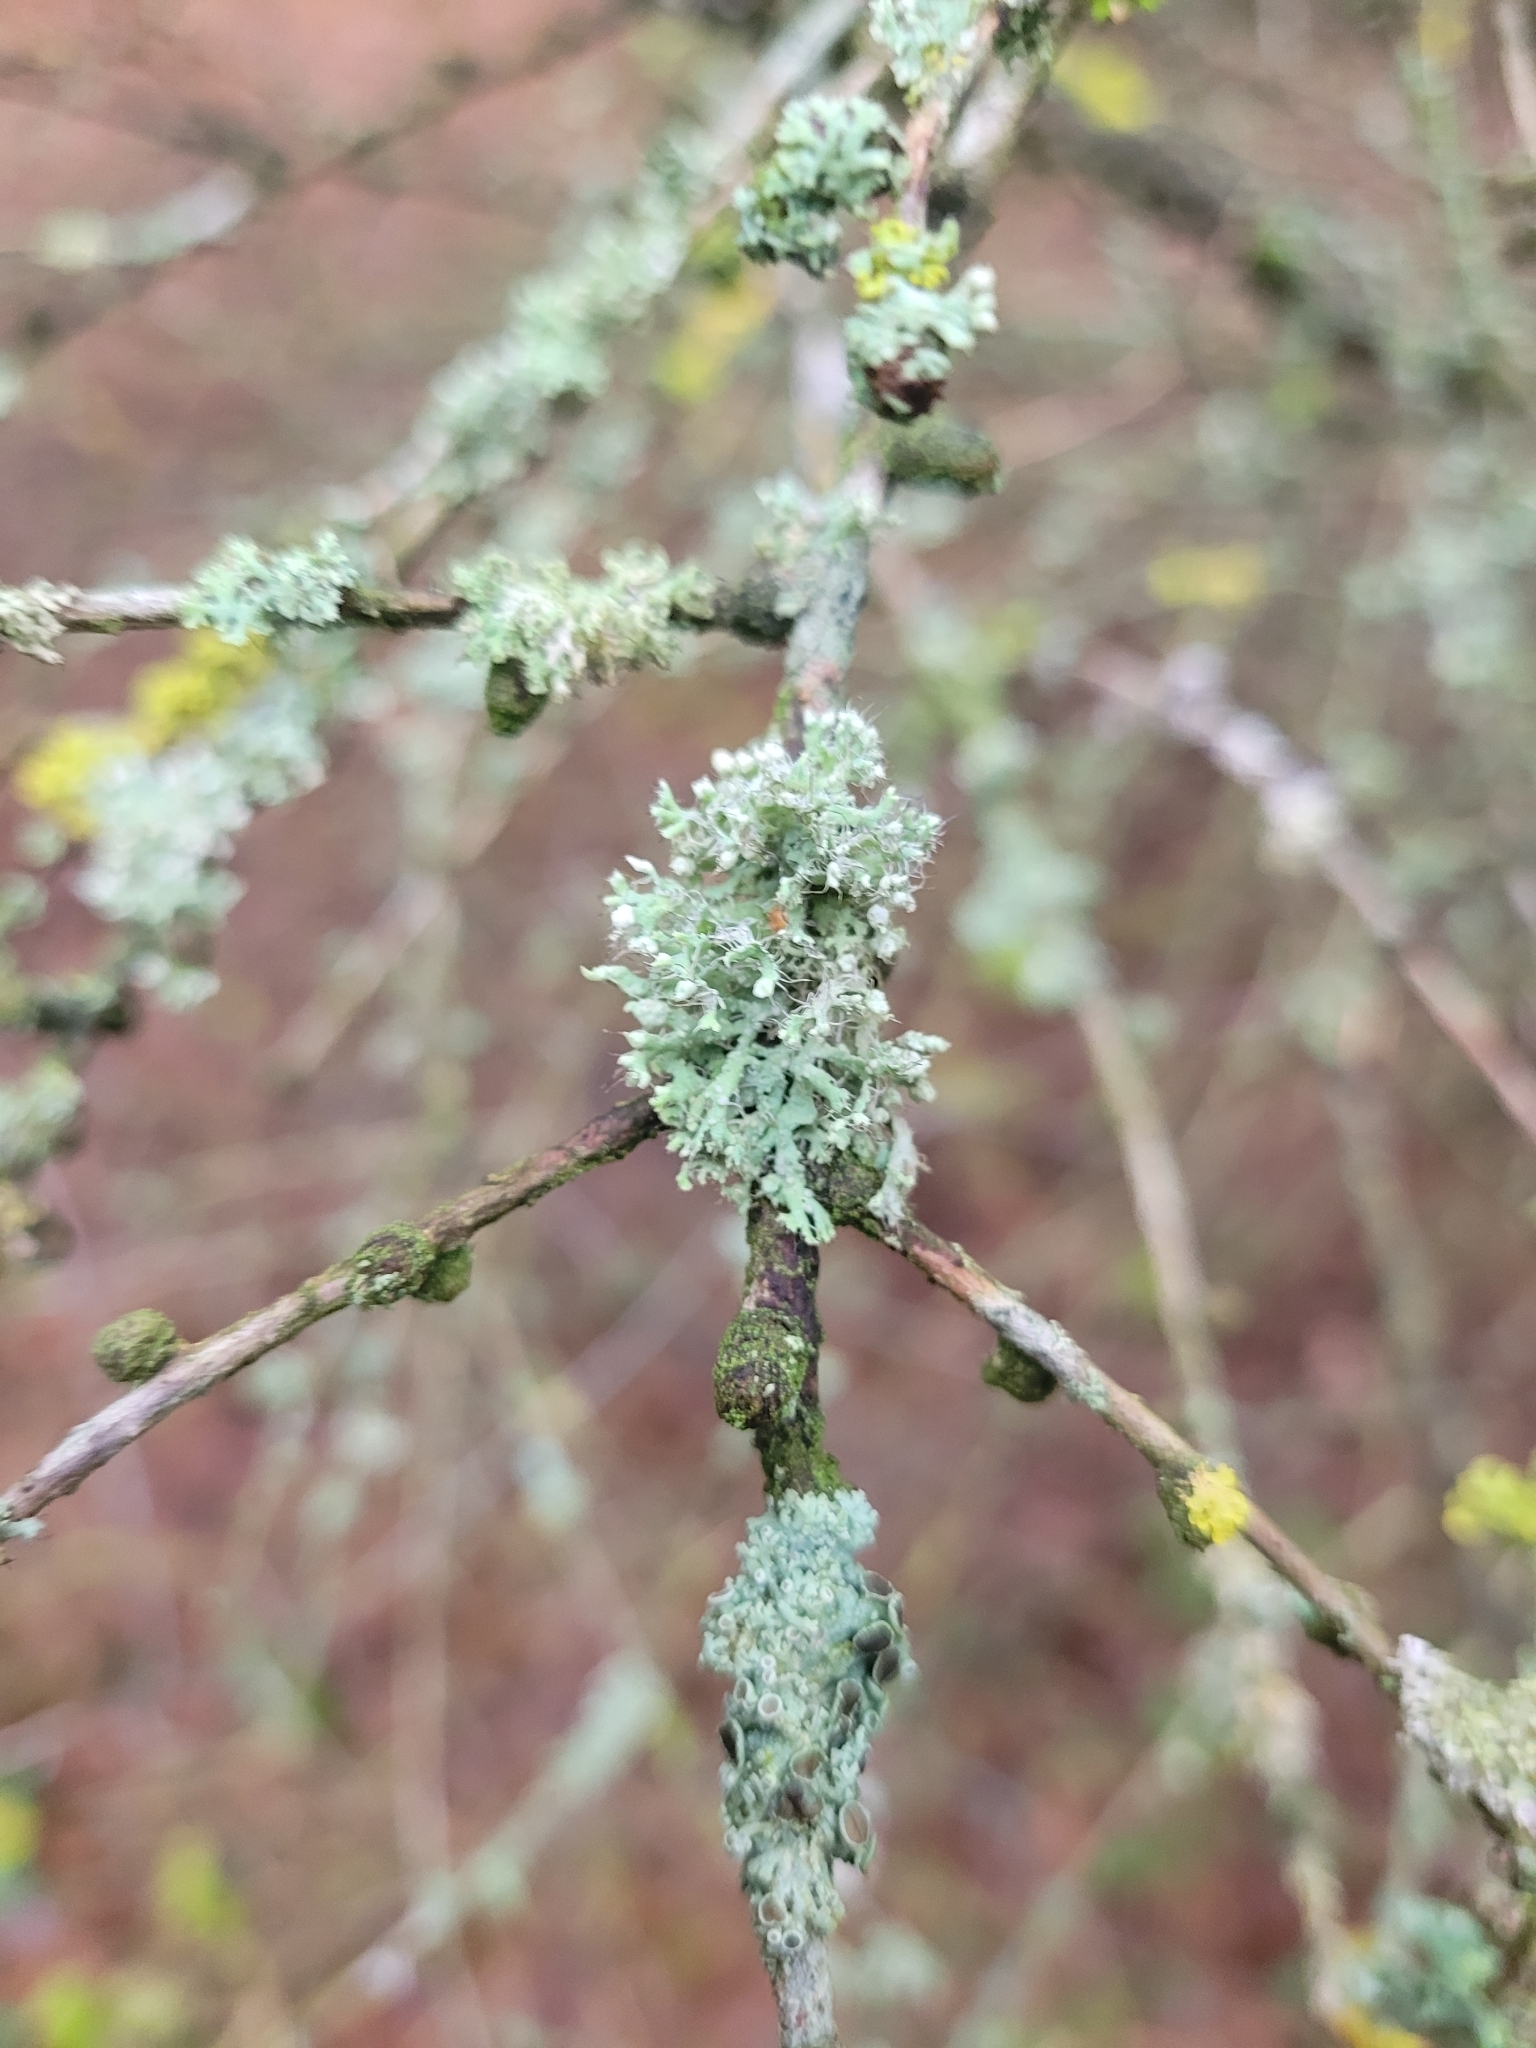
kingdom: Fungi
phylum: Ascomycota
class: Lecanoromycetes
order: Caliciales
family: Physciaceae
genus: Physcia
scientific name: Physcia adscendens
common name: Hooded rosette lichen
